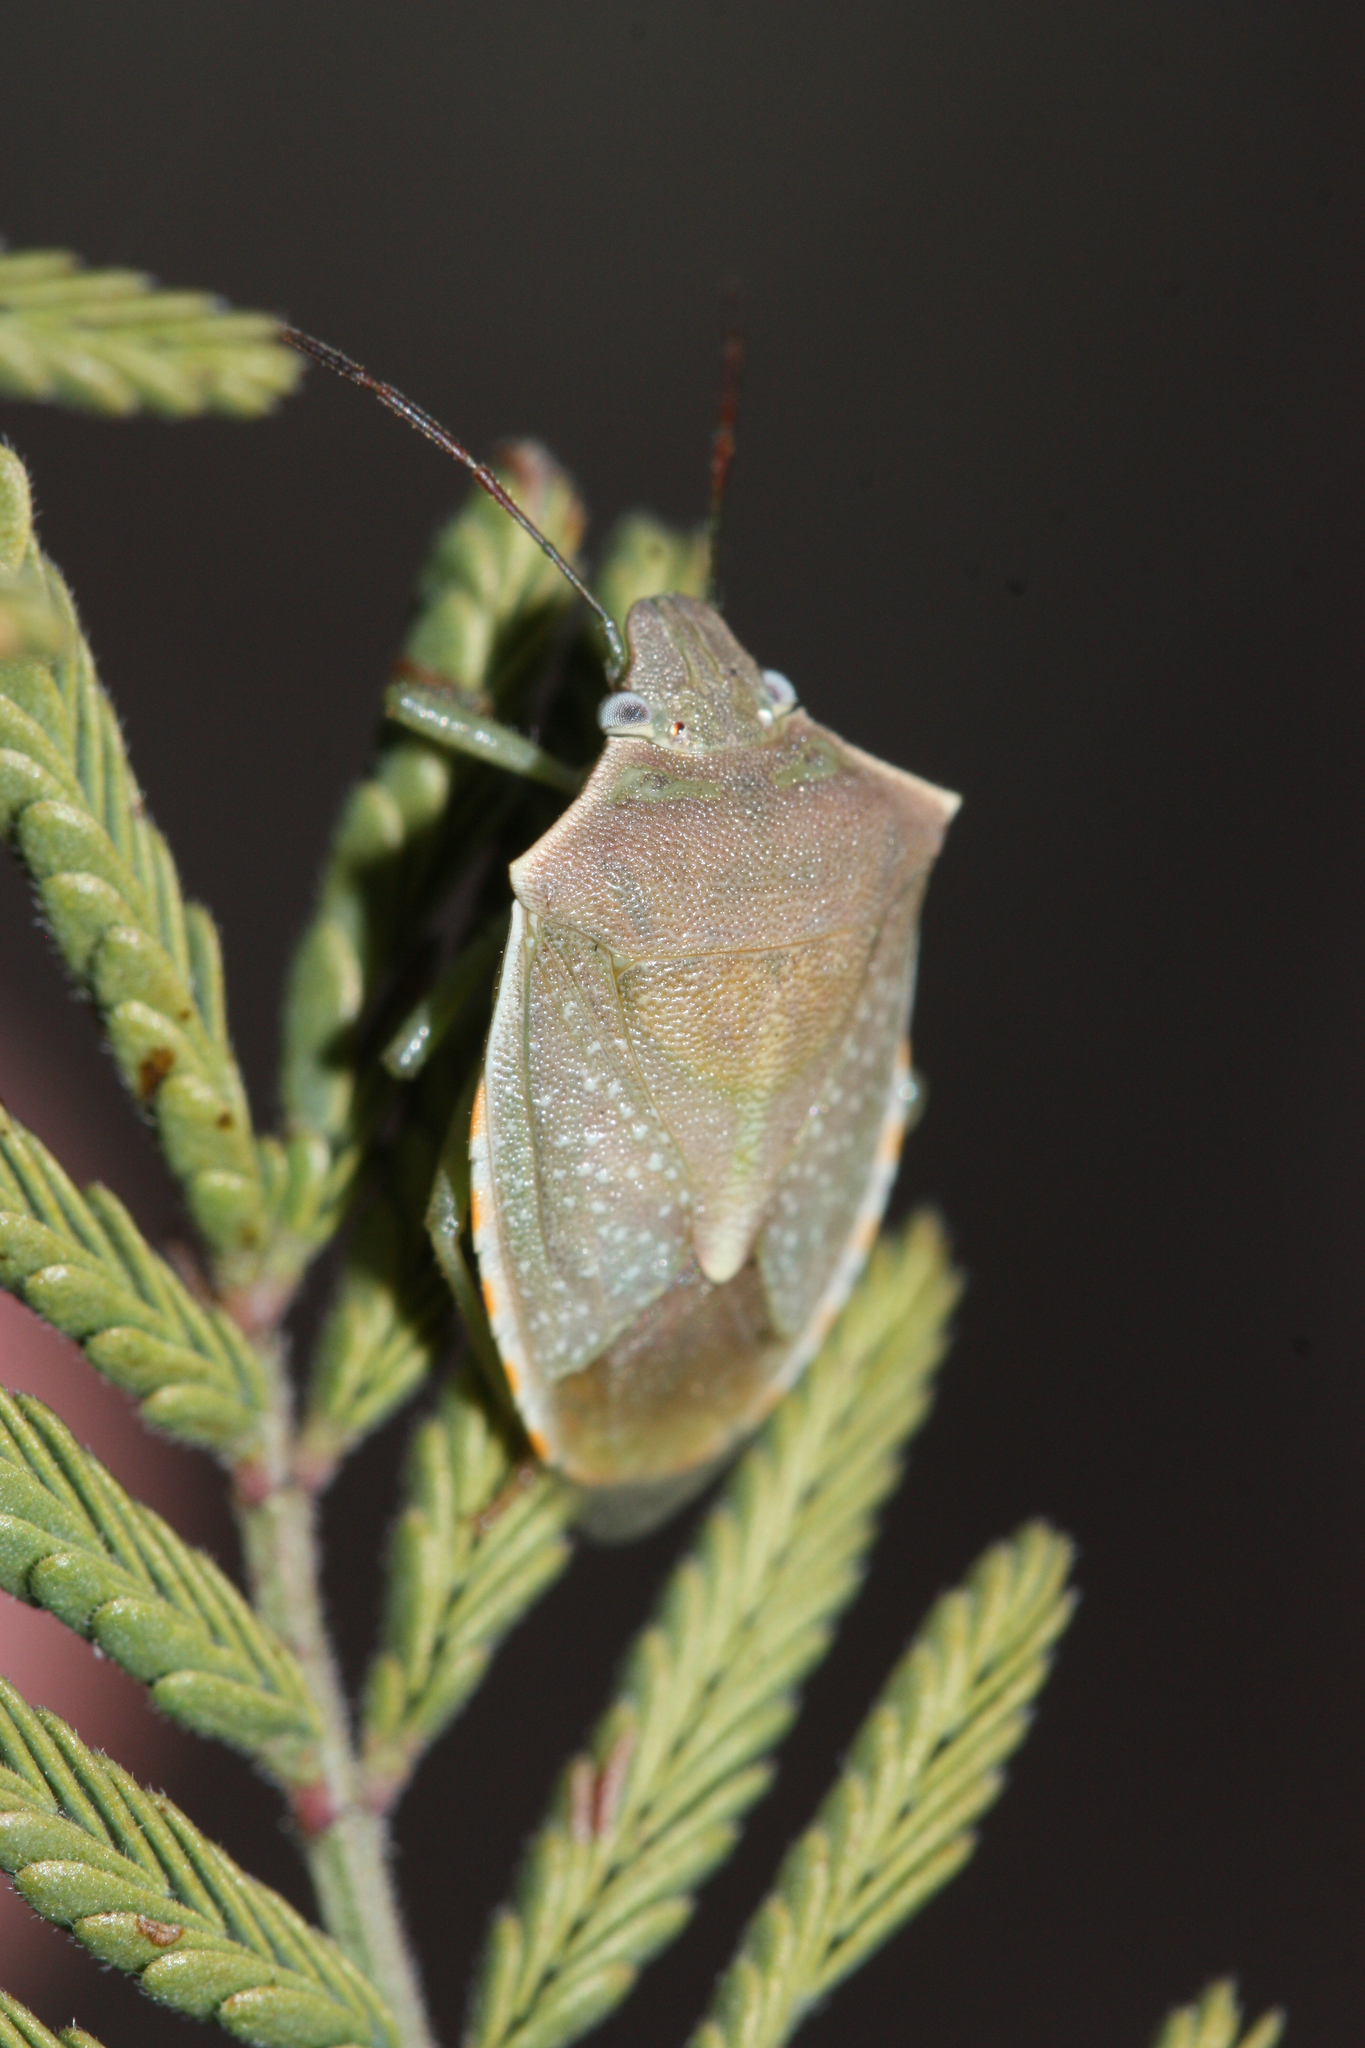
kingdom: Animalia
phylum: Arthropoda
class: Insecta
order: Hemiptera
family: Pentatomidae
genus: Thyanta
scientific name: Thyanta accerra
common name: Stink bug
